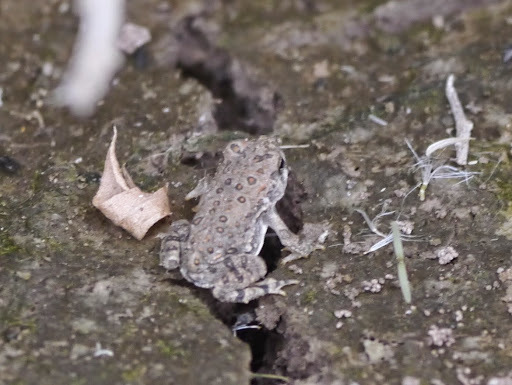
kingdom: Animalia
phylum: Chordata
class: Amphibia
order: Anura
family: Bufonidae
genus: Anaxyrus
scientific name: Anaxyrus
